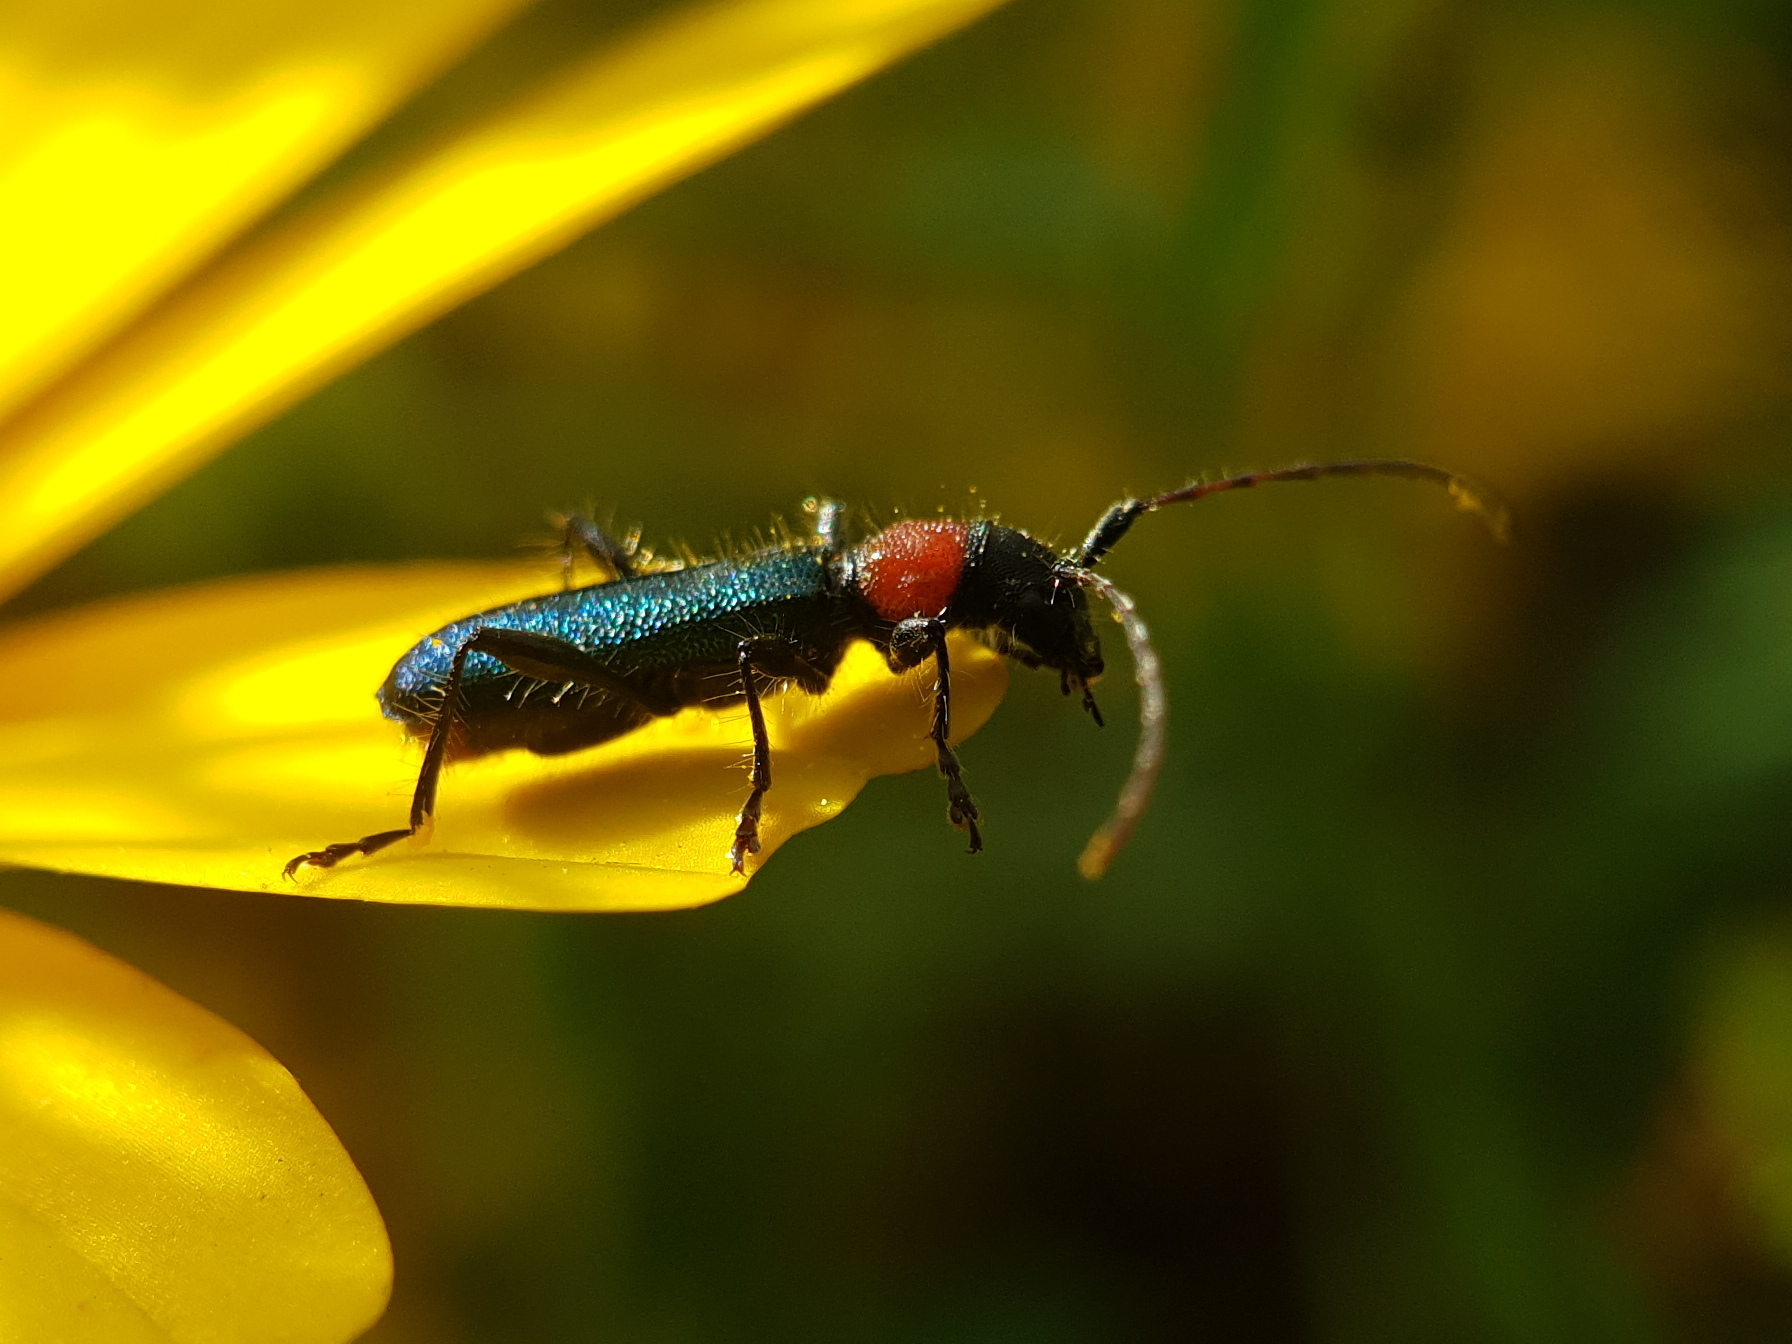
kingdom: Animalia
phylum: Arthropoda
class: Insecta
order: Coleoptera
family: Cerambycidae
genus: Certallum
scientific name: Certallum ebulinum
